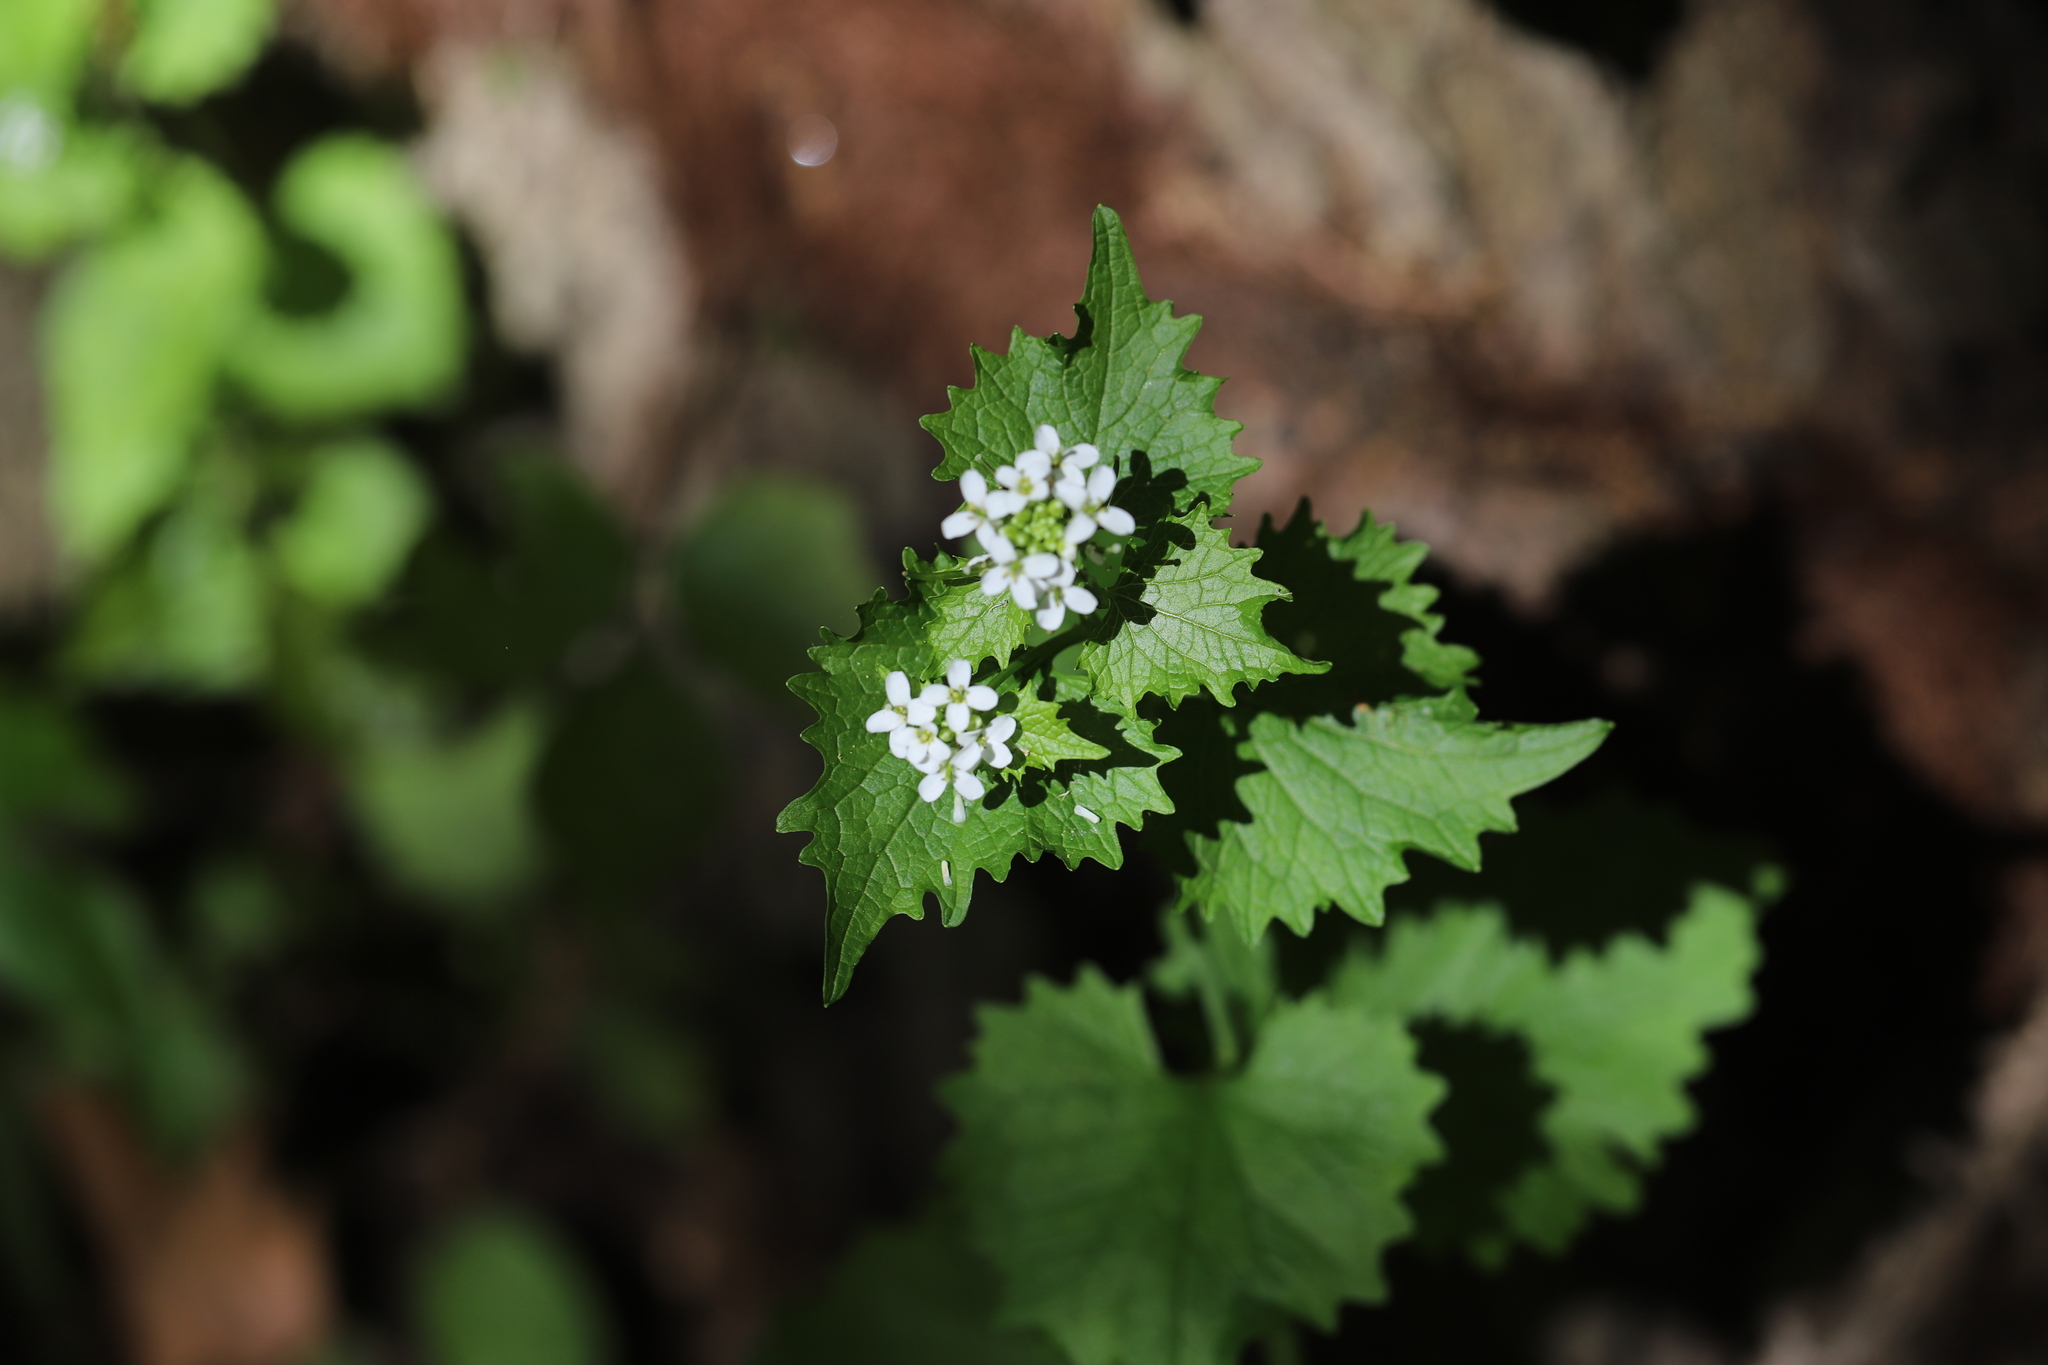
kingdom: Plantae
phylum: Tracheophyta
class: Magnoliopsida
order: Brassicales
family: Brassicaceae
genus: Alliaria
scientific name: Alliaria petiolata
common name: Garlic mustard
